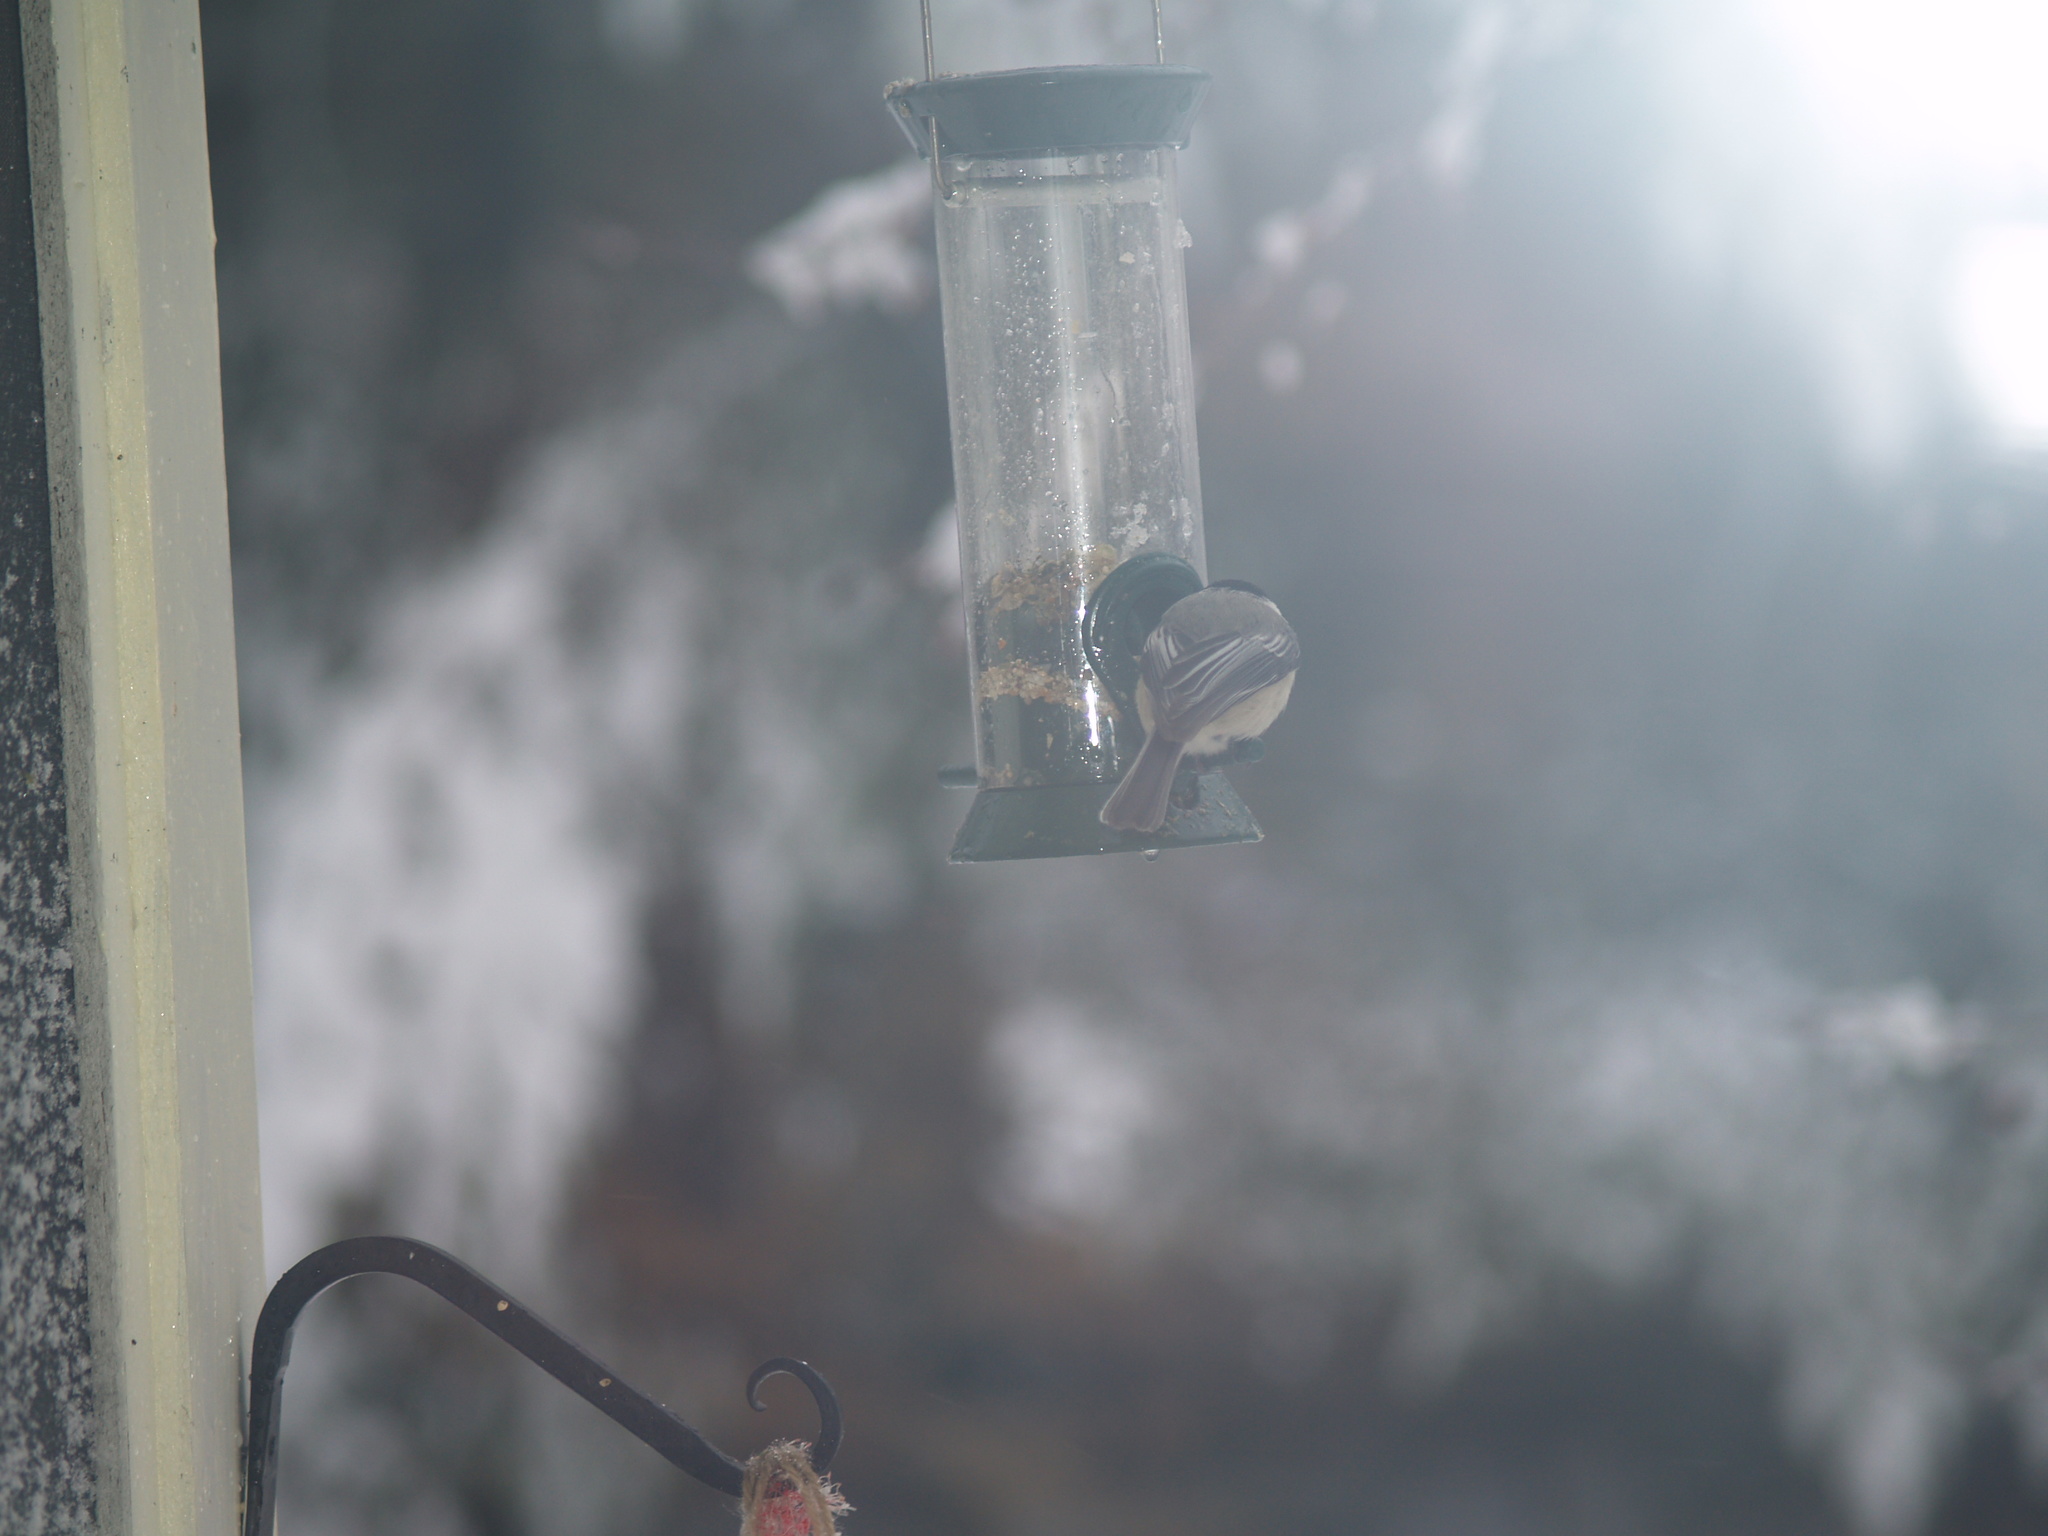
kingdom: Animalia
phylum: Chordata
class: Aves
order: Passeriformes
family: Paridae
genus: Poecile
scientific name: Poecile atricapillus
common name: Black-capped chickadee
